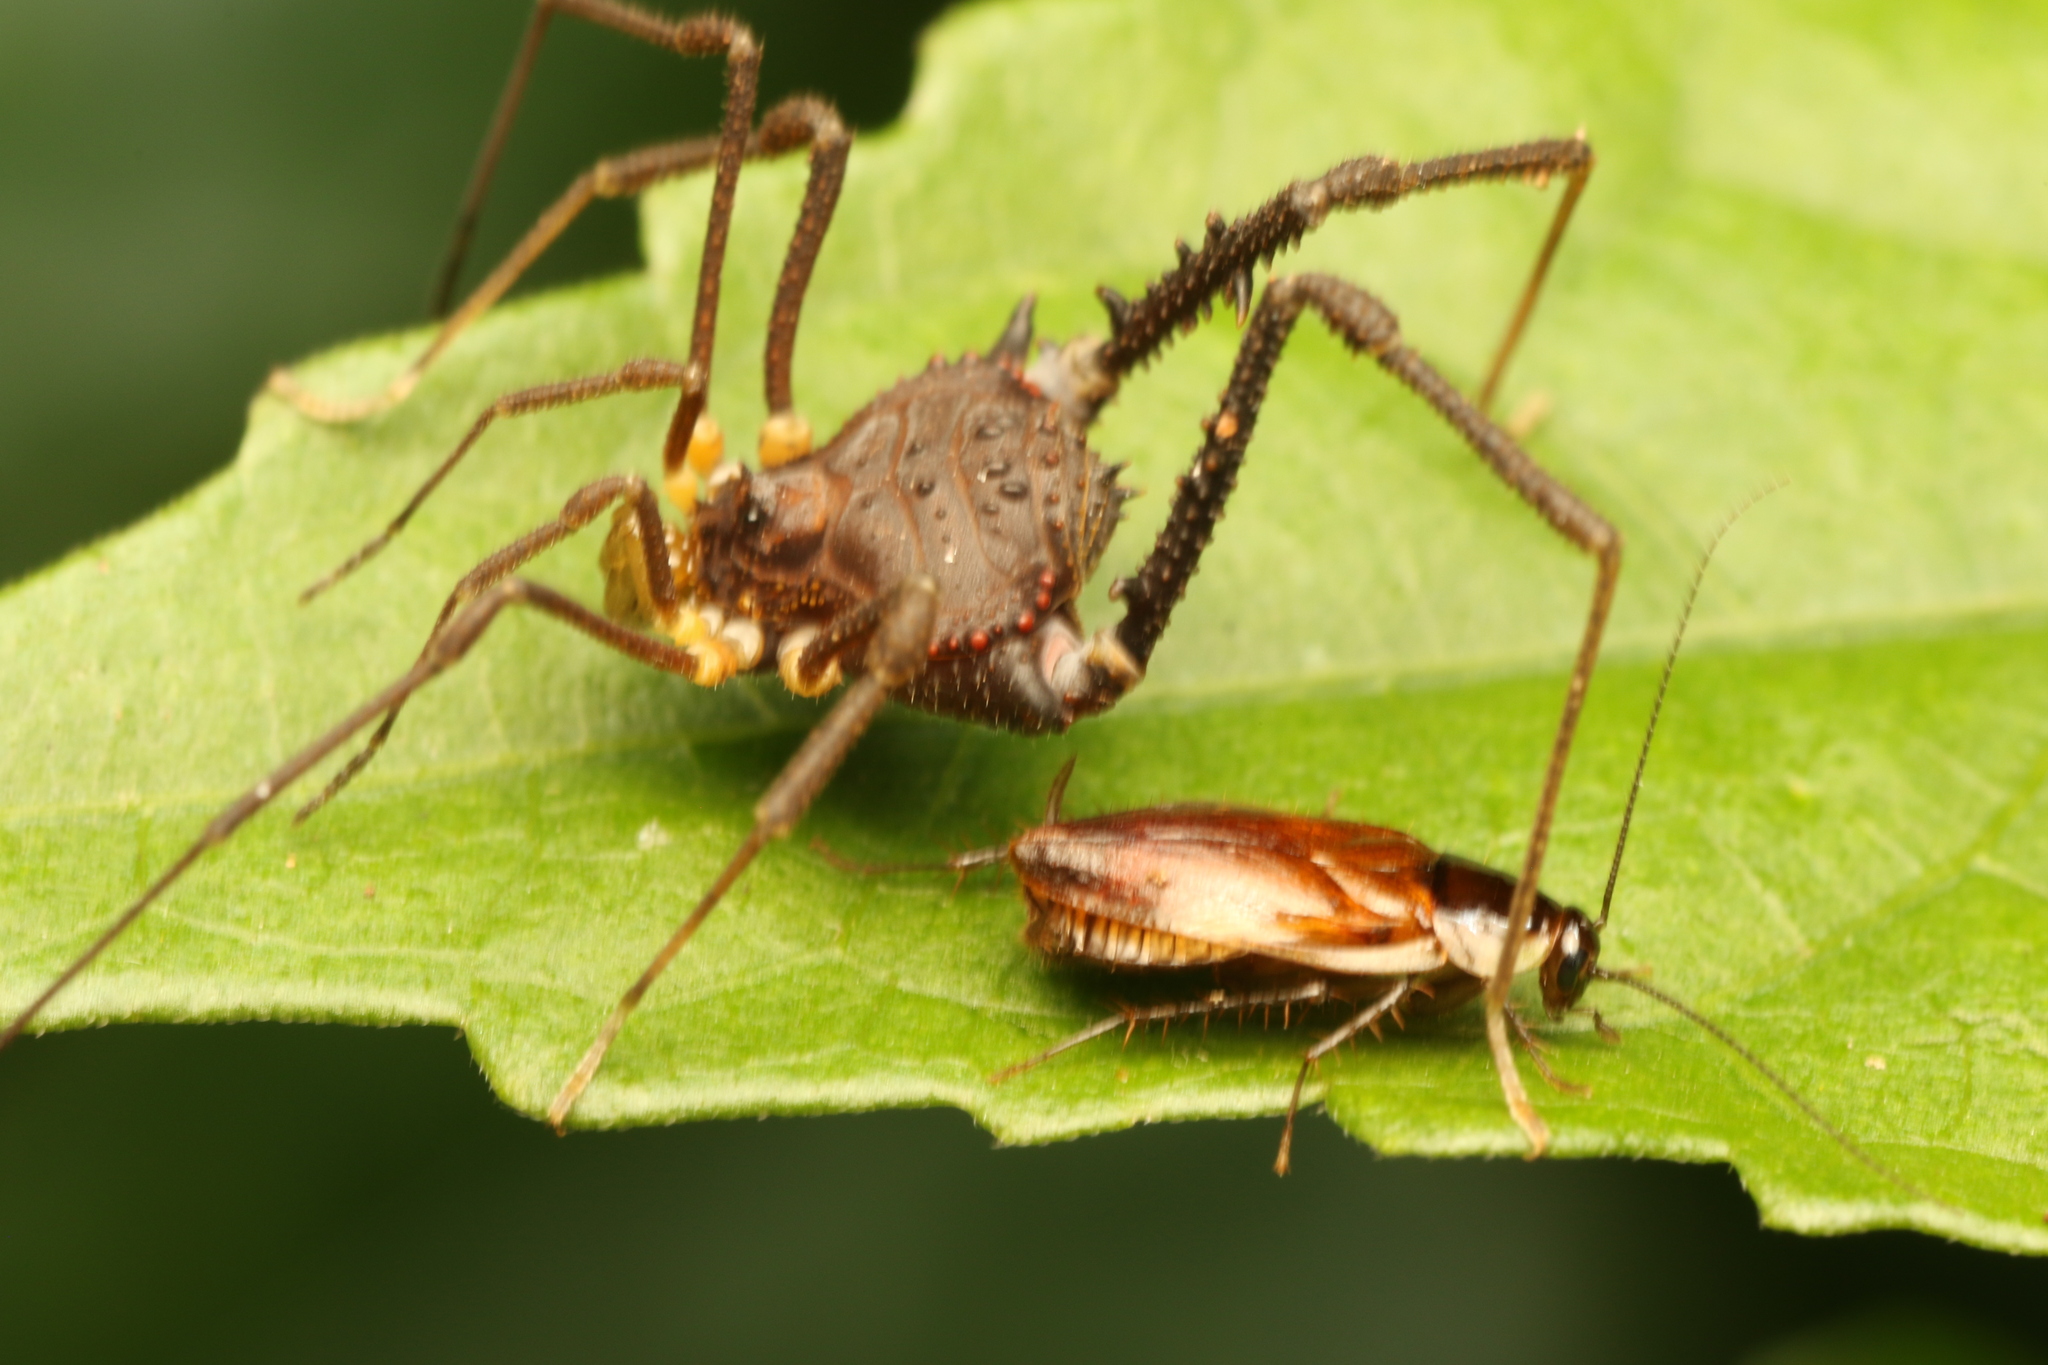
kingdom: Animalia
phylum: Arthropoda
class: Arachnida
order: Opiliones
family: Gonyleptidae
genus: Mischonyx
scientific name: Mischonyx squalidus
